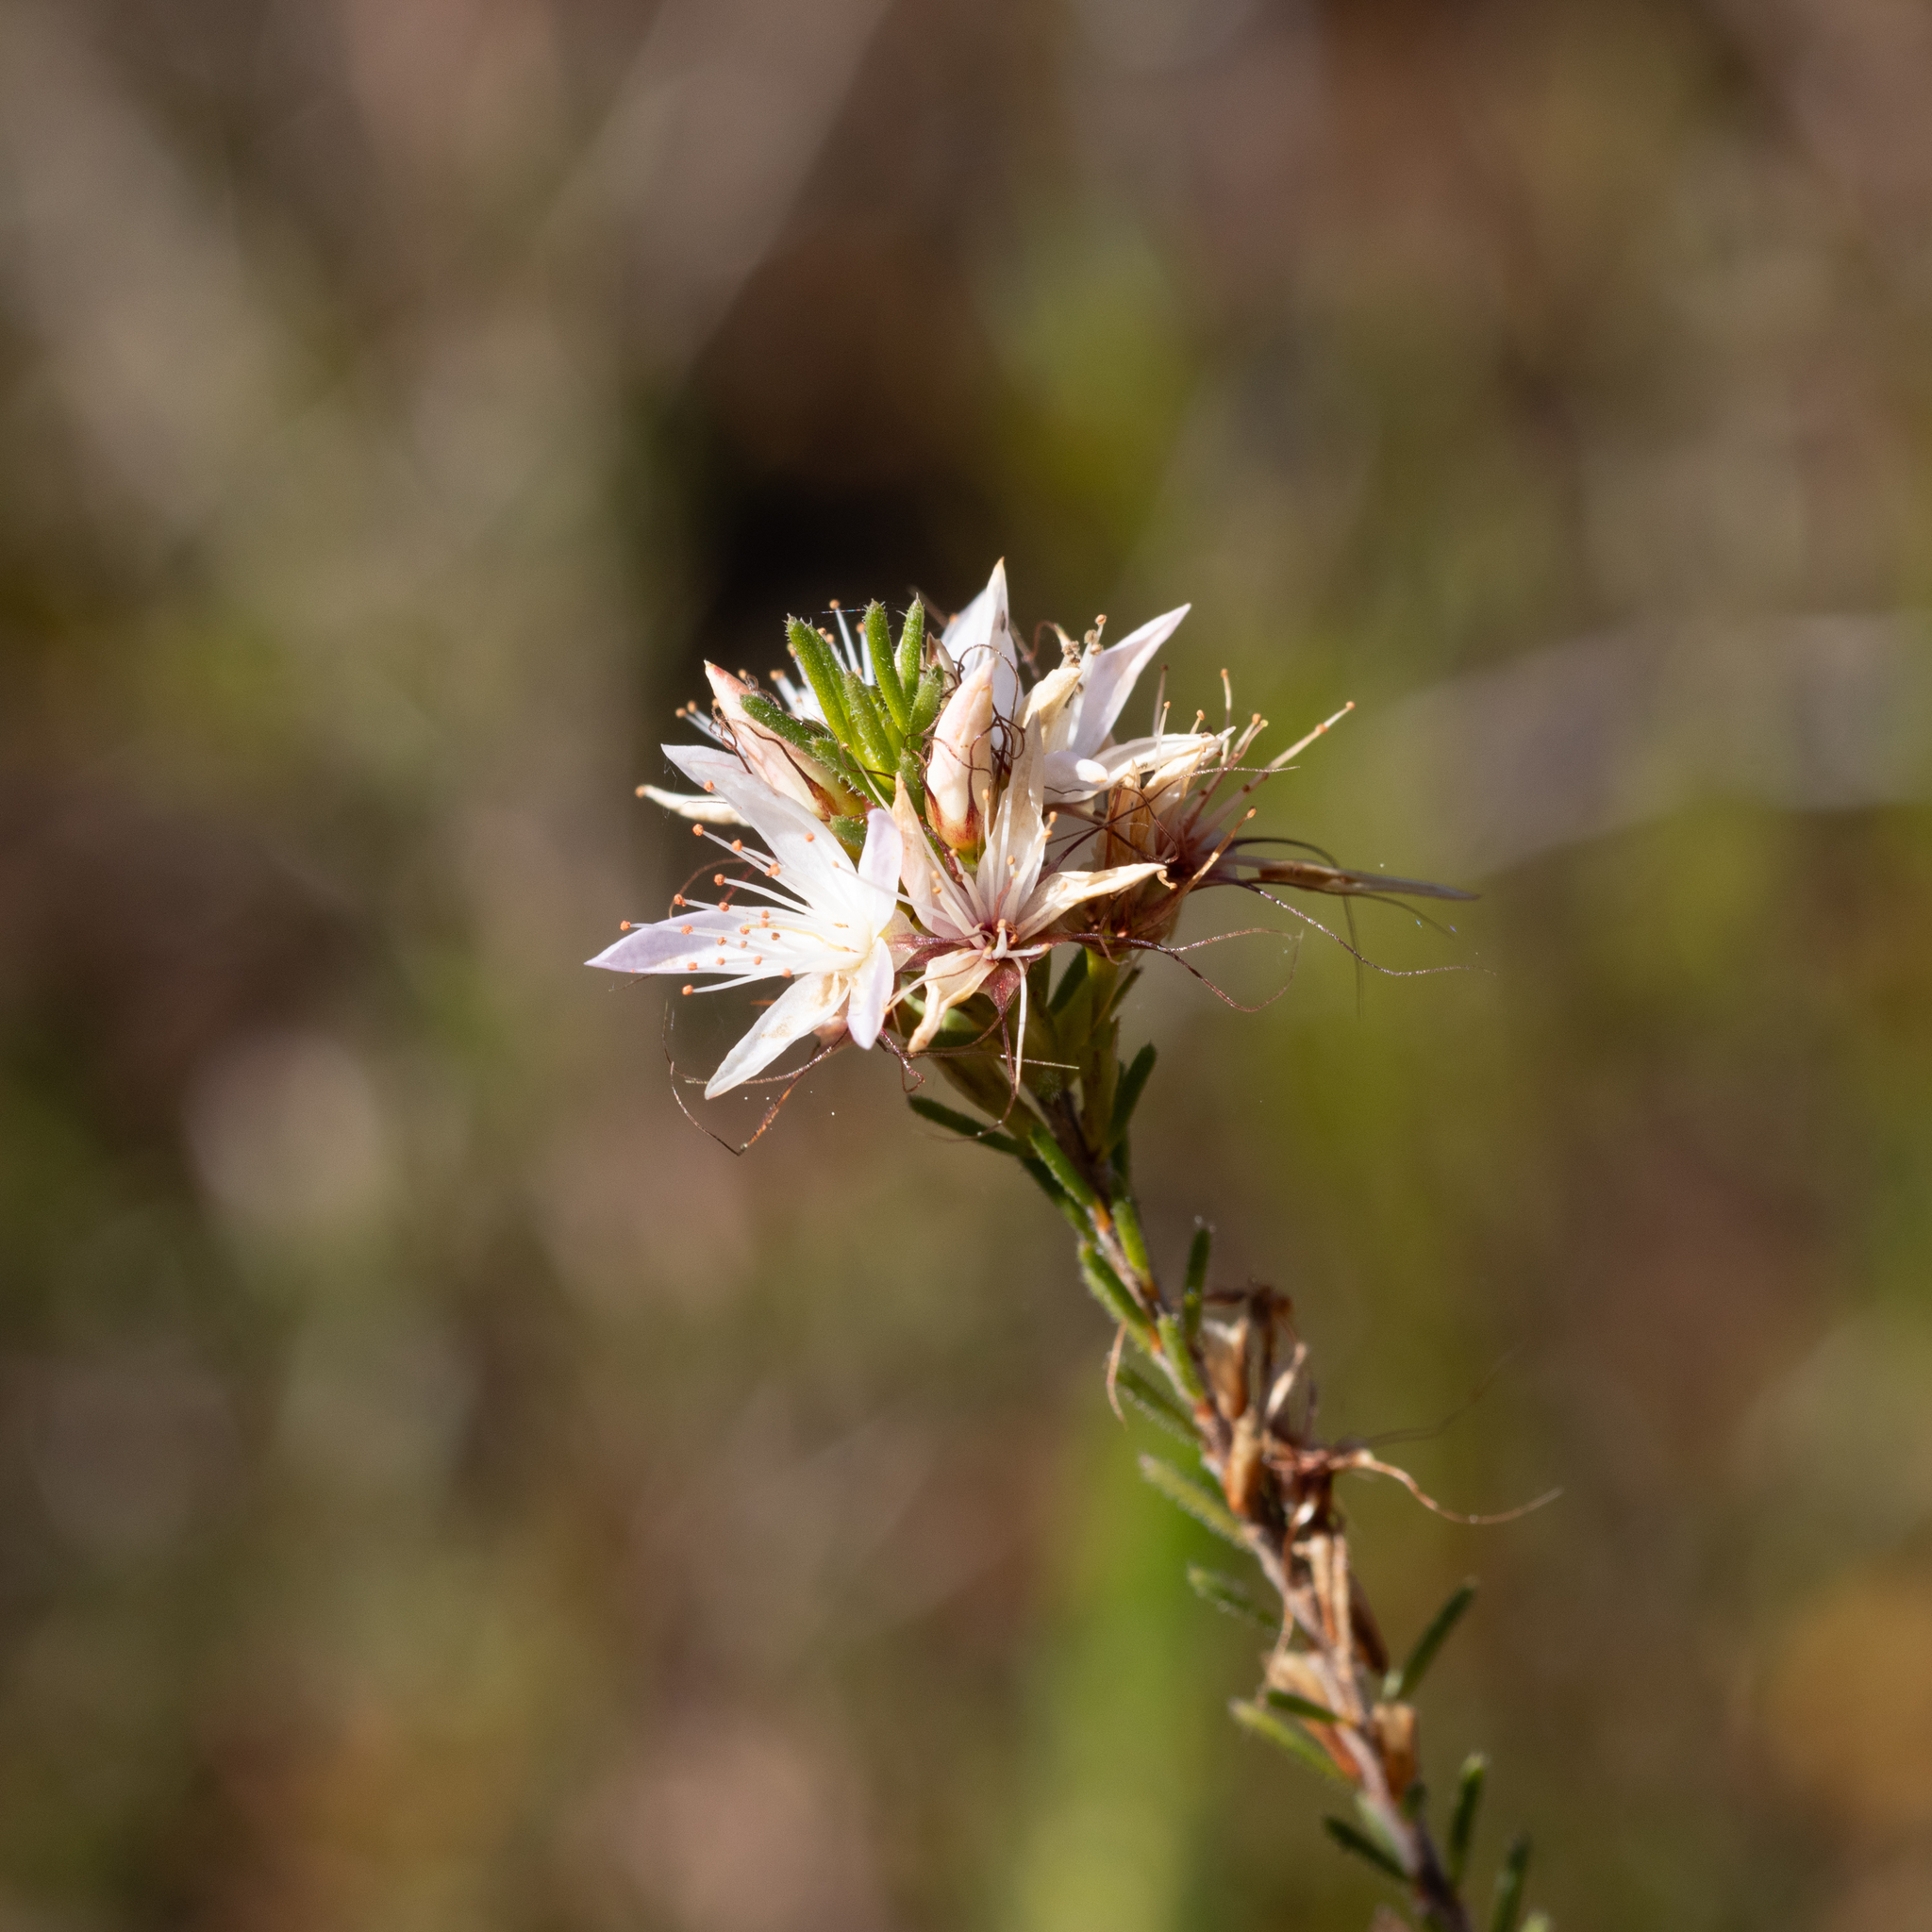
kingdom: Plantae
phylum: Tracheophyta
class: Magnoliopsida
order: Myrtales
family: Myrtaceae
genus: Calytrix
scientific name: Calytrix tetragona
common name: Common fringe myrtle
